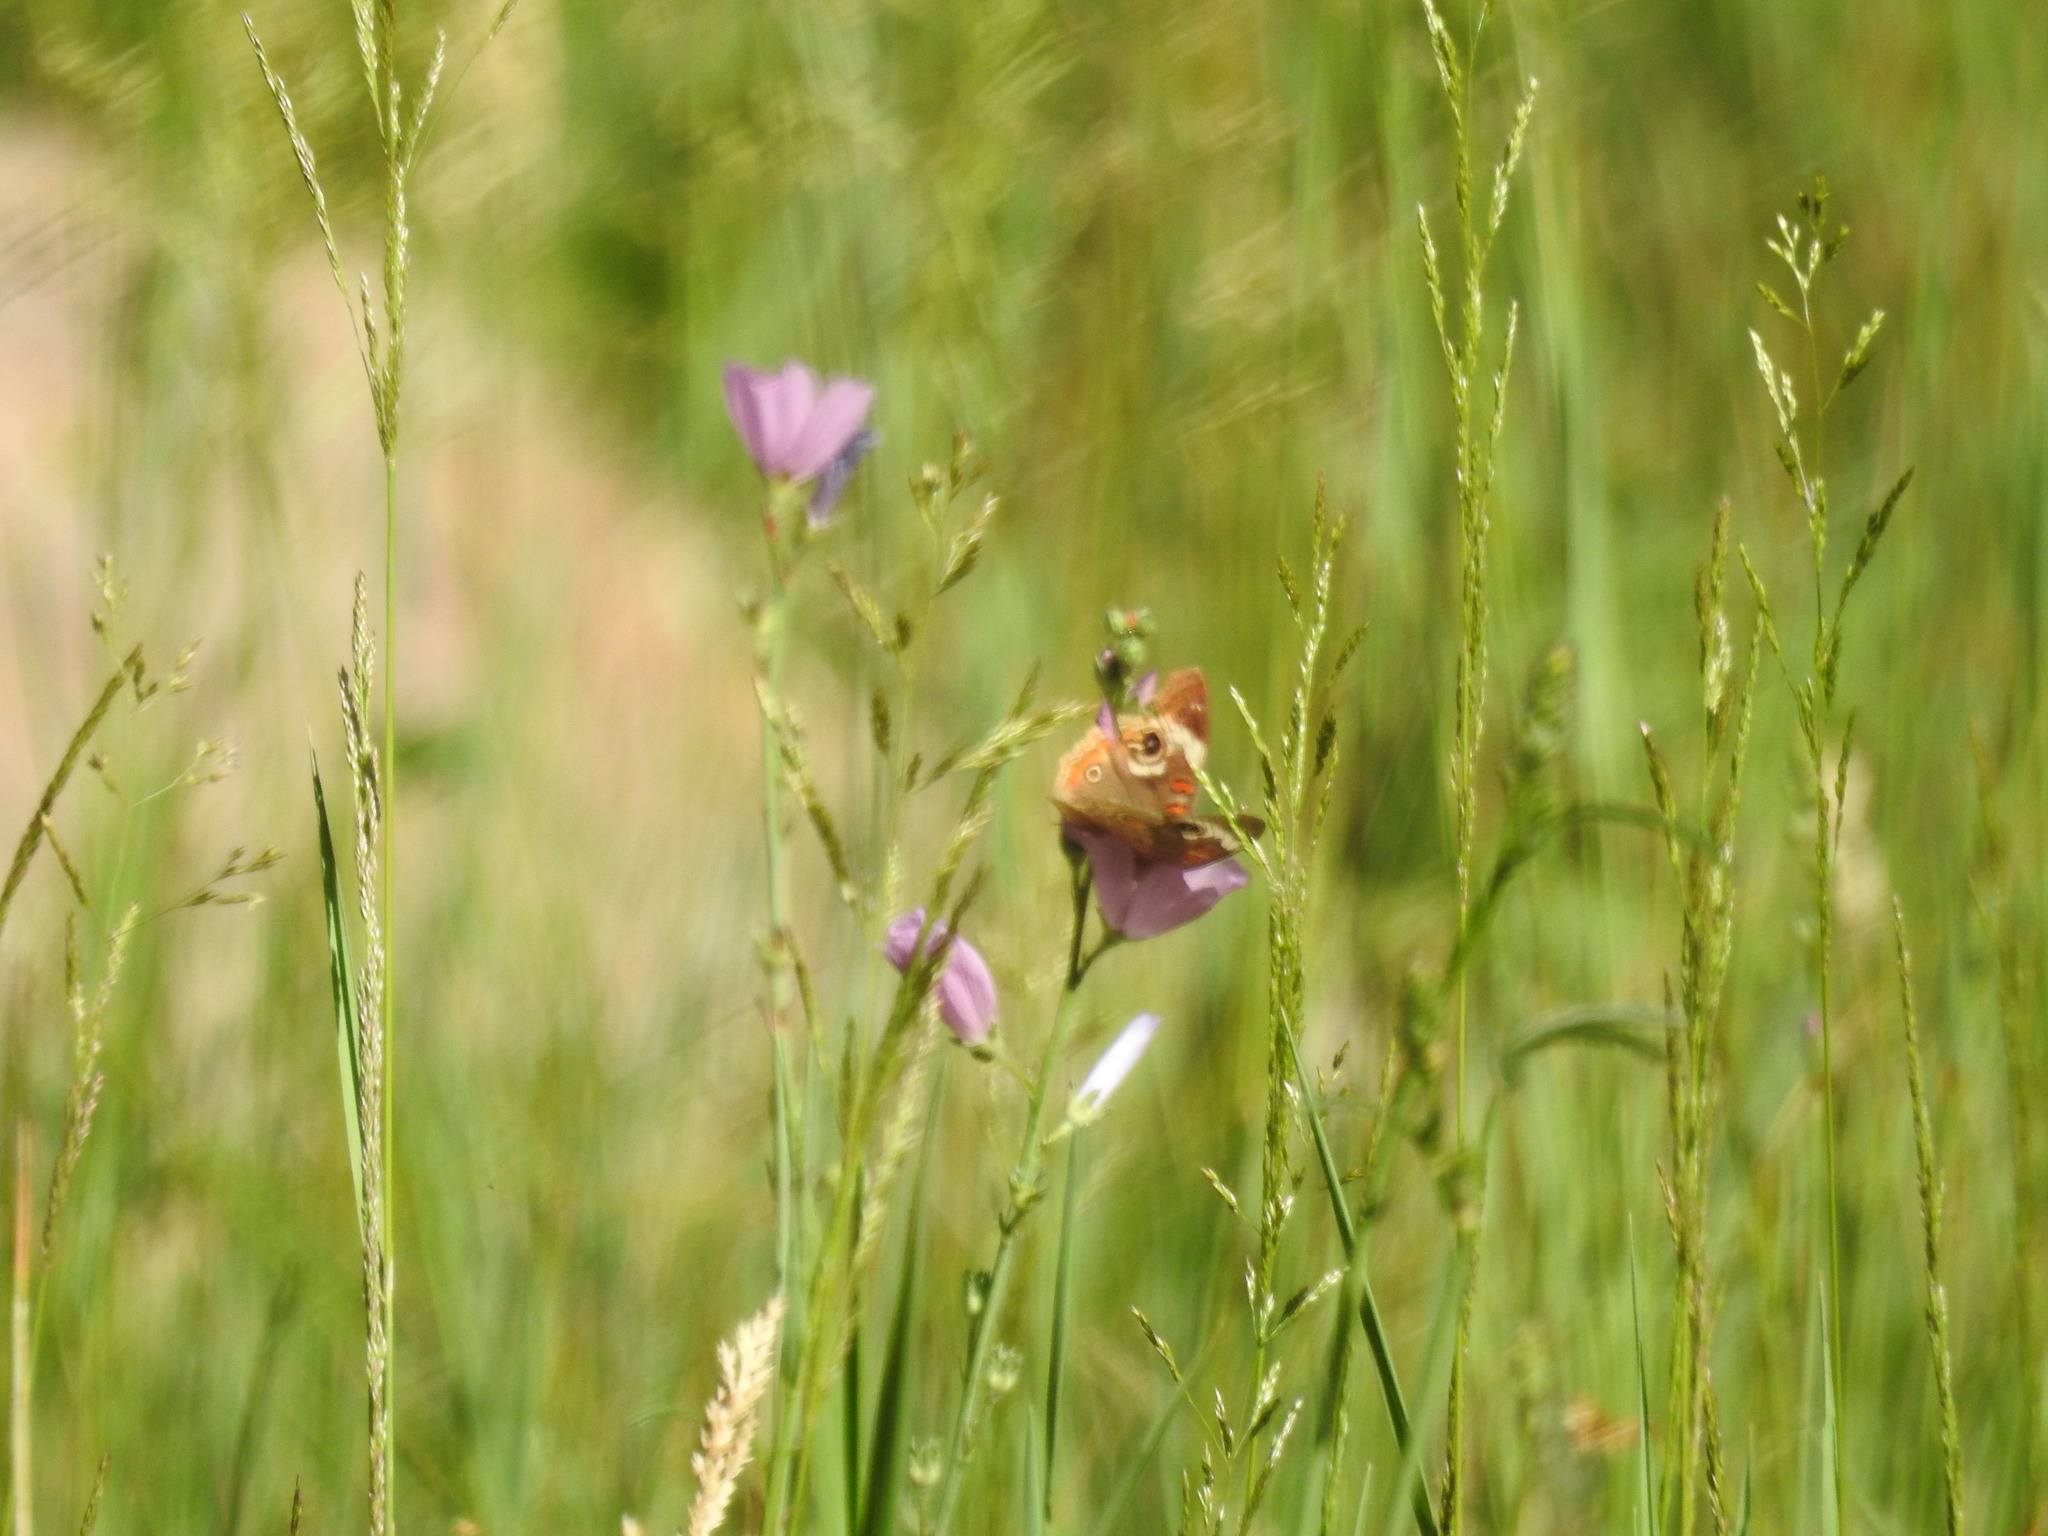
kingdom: Animalia
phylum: Arthropoda
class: Insecta
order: Lepidoptera
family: Nymphalidae
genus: Junonia
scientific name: Junonia grisea
